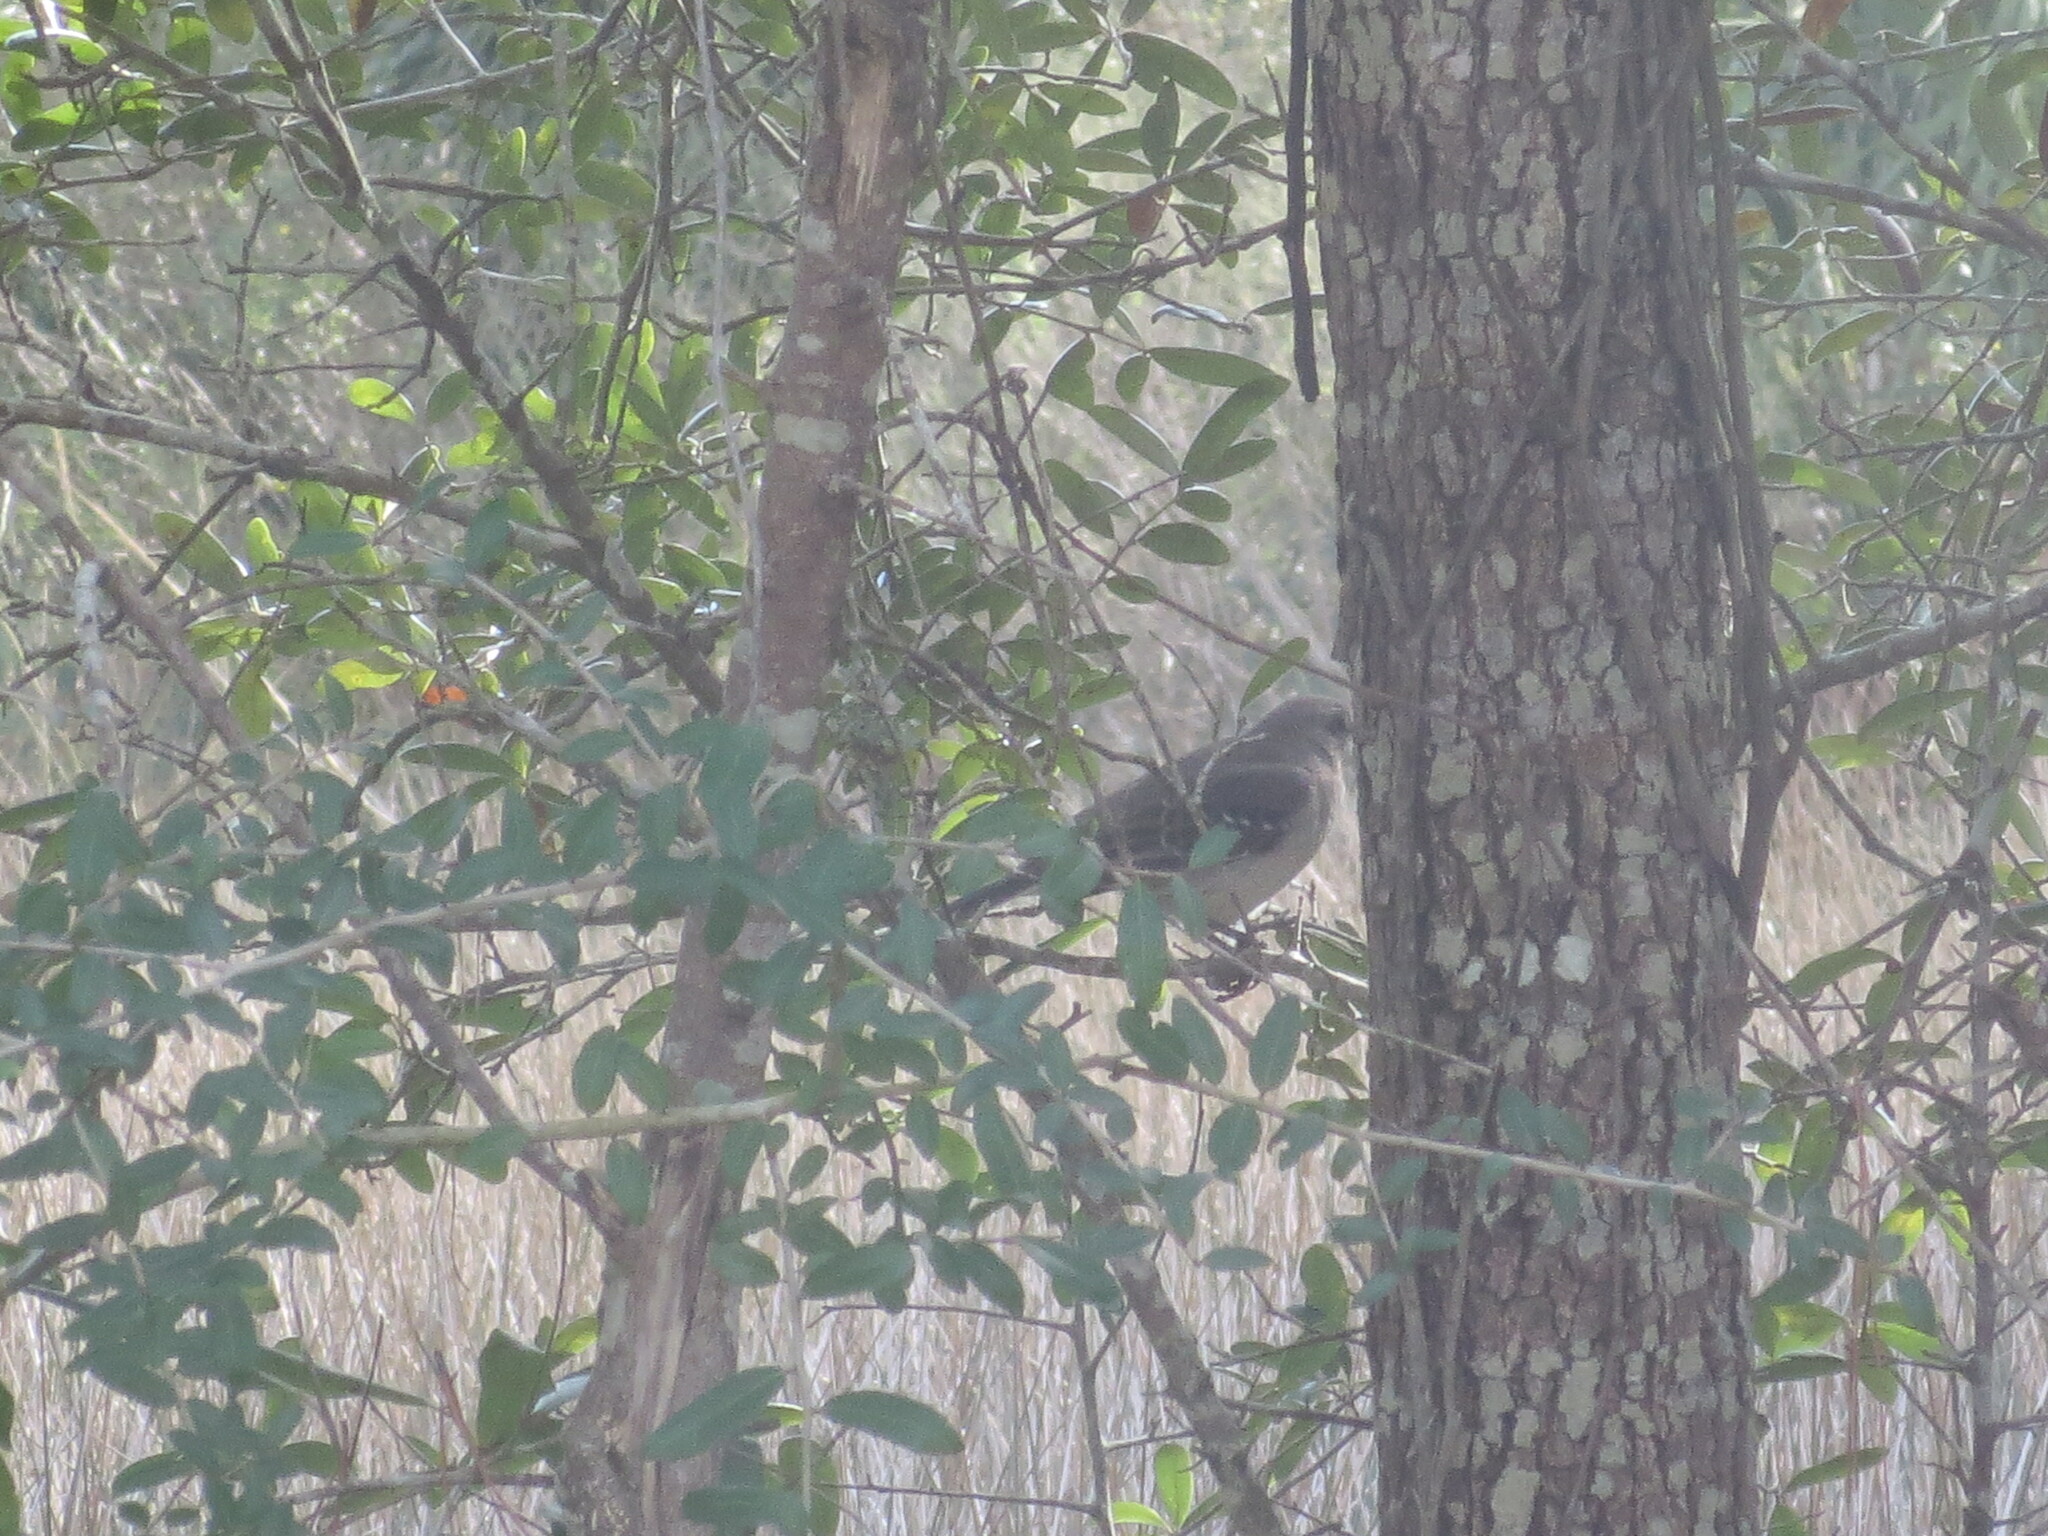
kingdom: Animalia
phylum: Chordata
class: Aves
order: Passeriformes
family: Mimidae
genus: Mimus
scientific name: Mimus polyglottos
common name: Northern mockingbird
